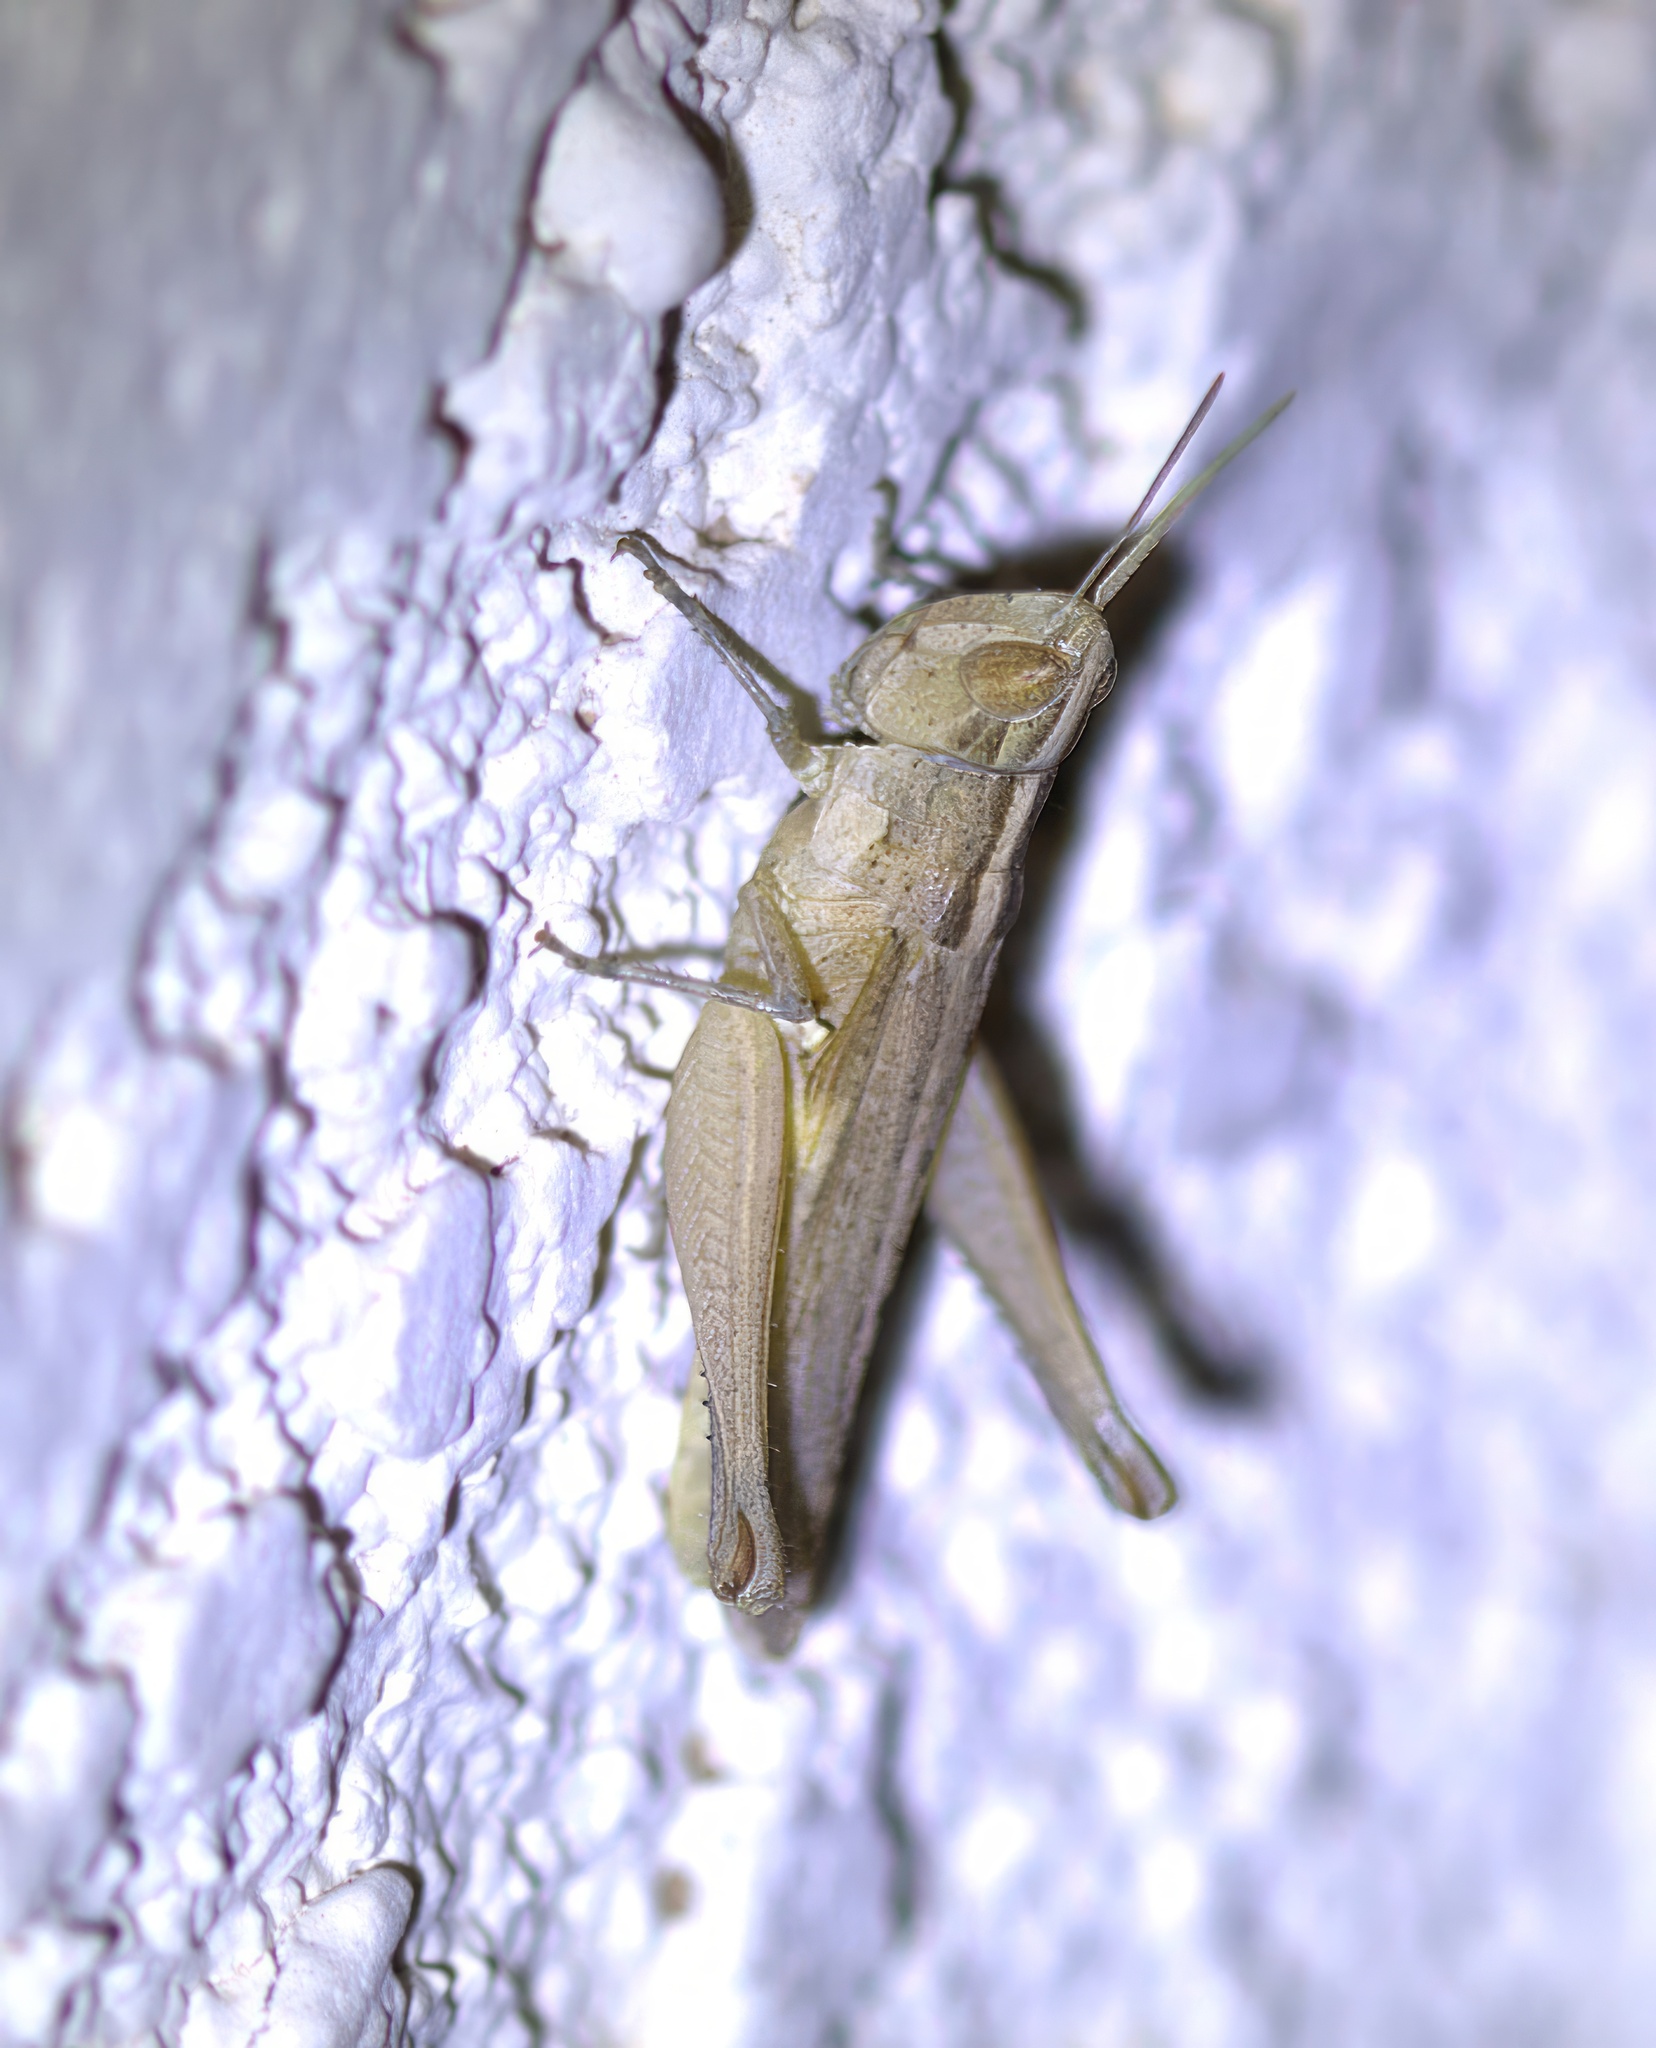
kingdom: Animalia
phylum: Arthropoda
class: Insecta
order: Orthoptera
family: Acrididae
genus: Horesidotes
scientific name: Horesidotes cinereus
